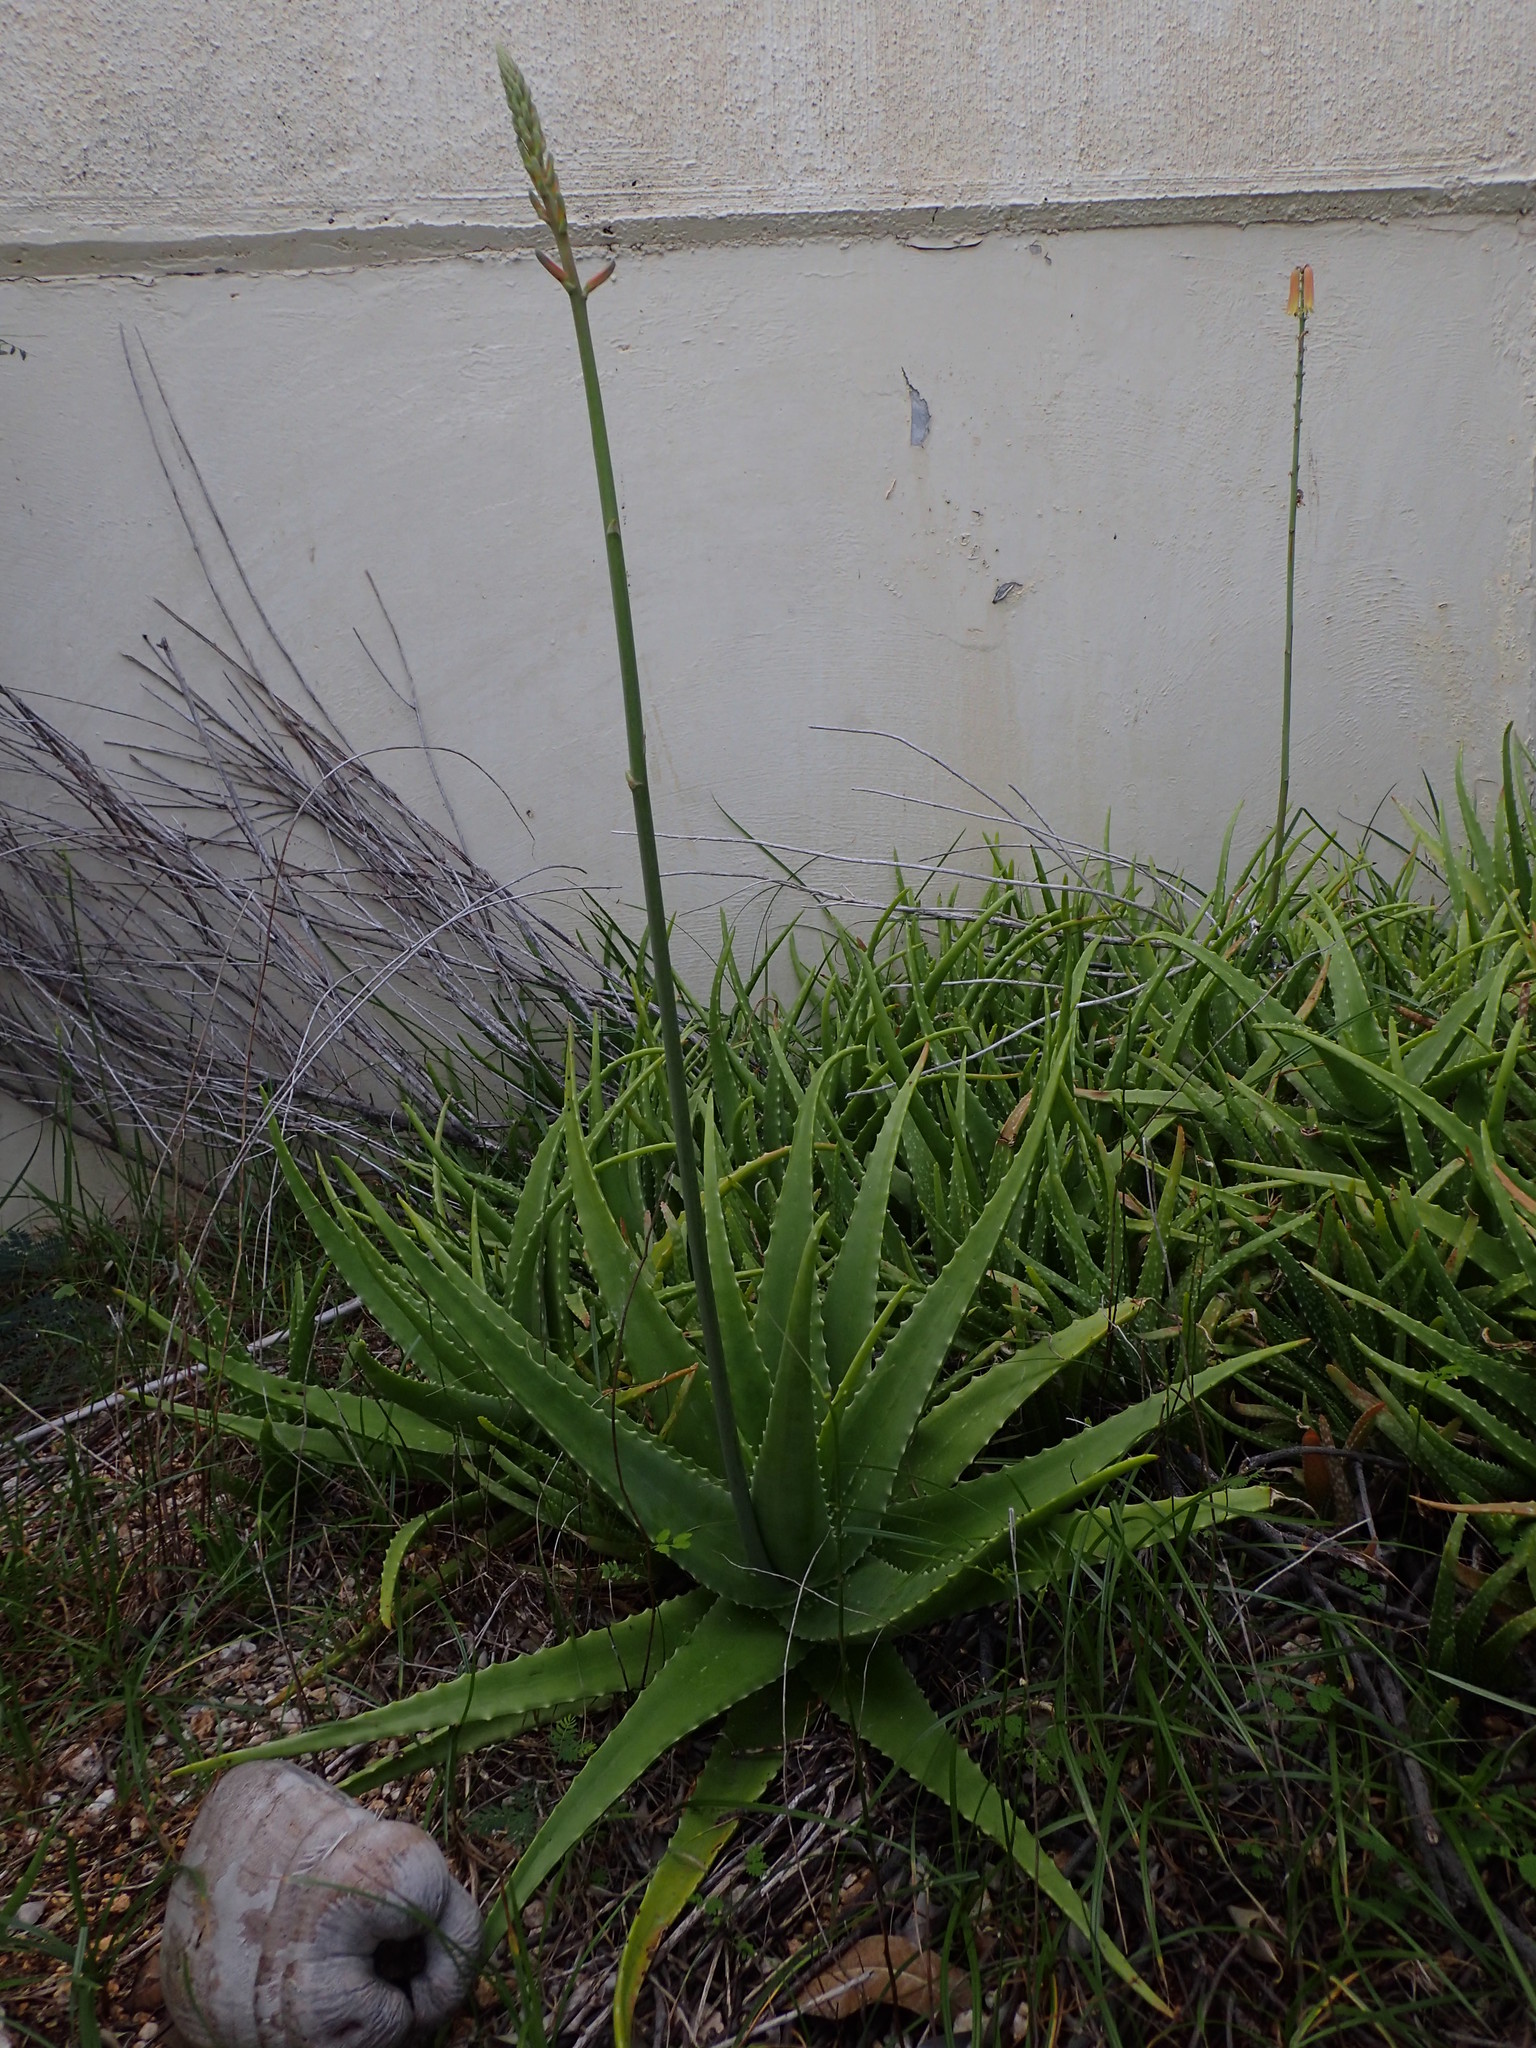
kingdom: Plantae
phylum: Tracheophyta
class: Liliopsida
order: Asparagales
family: Asphodelaceae
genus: Aloe
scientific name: Aloe vera
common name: Barbados aloe
